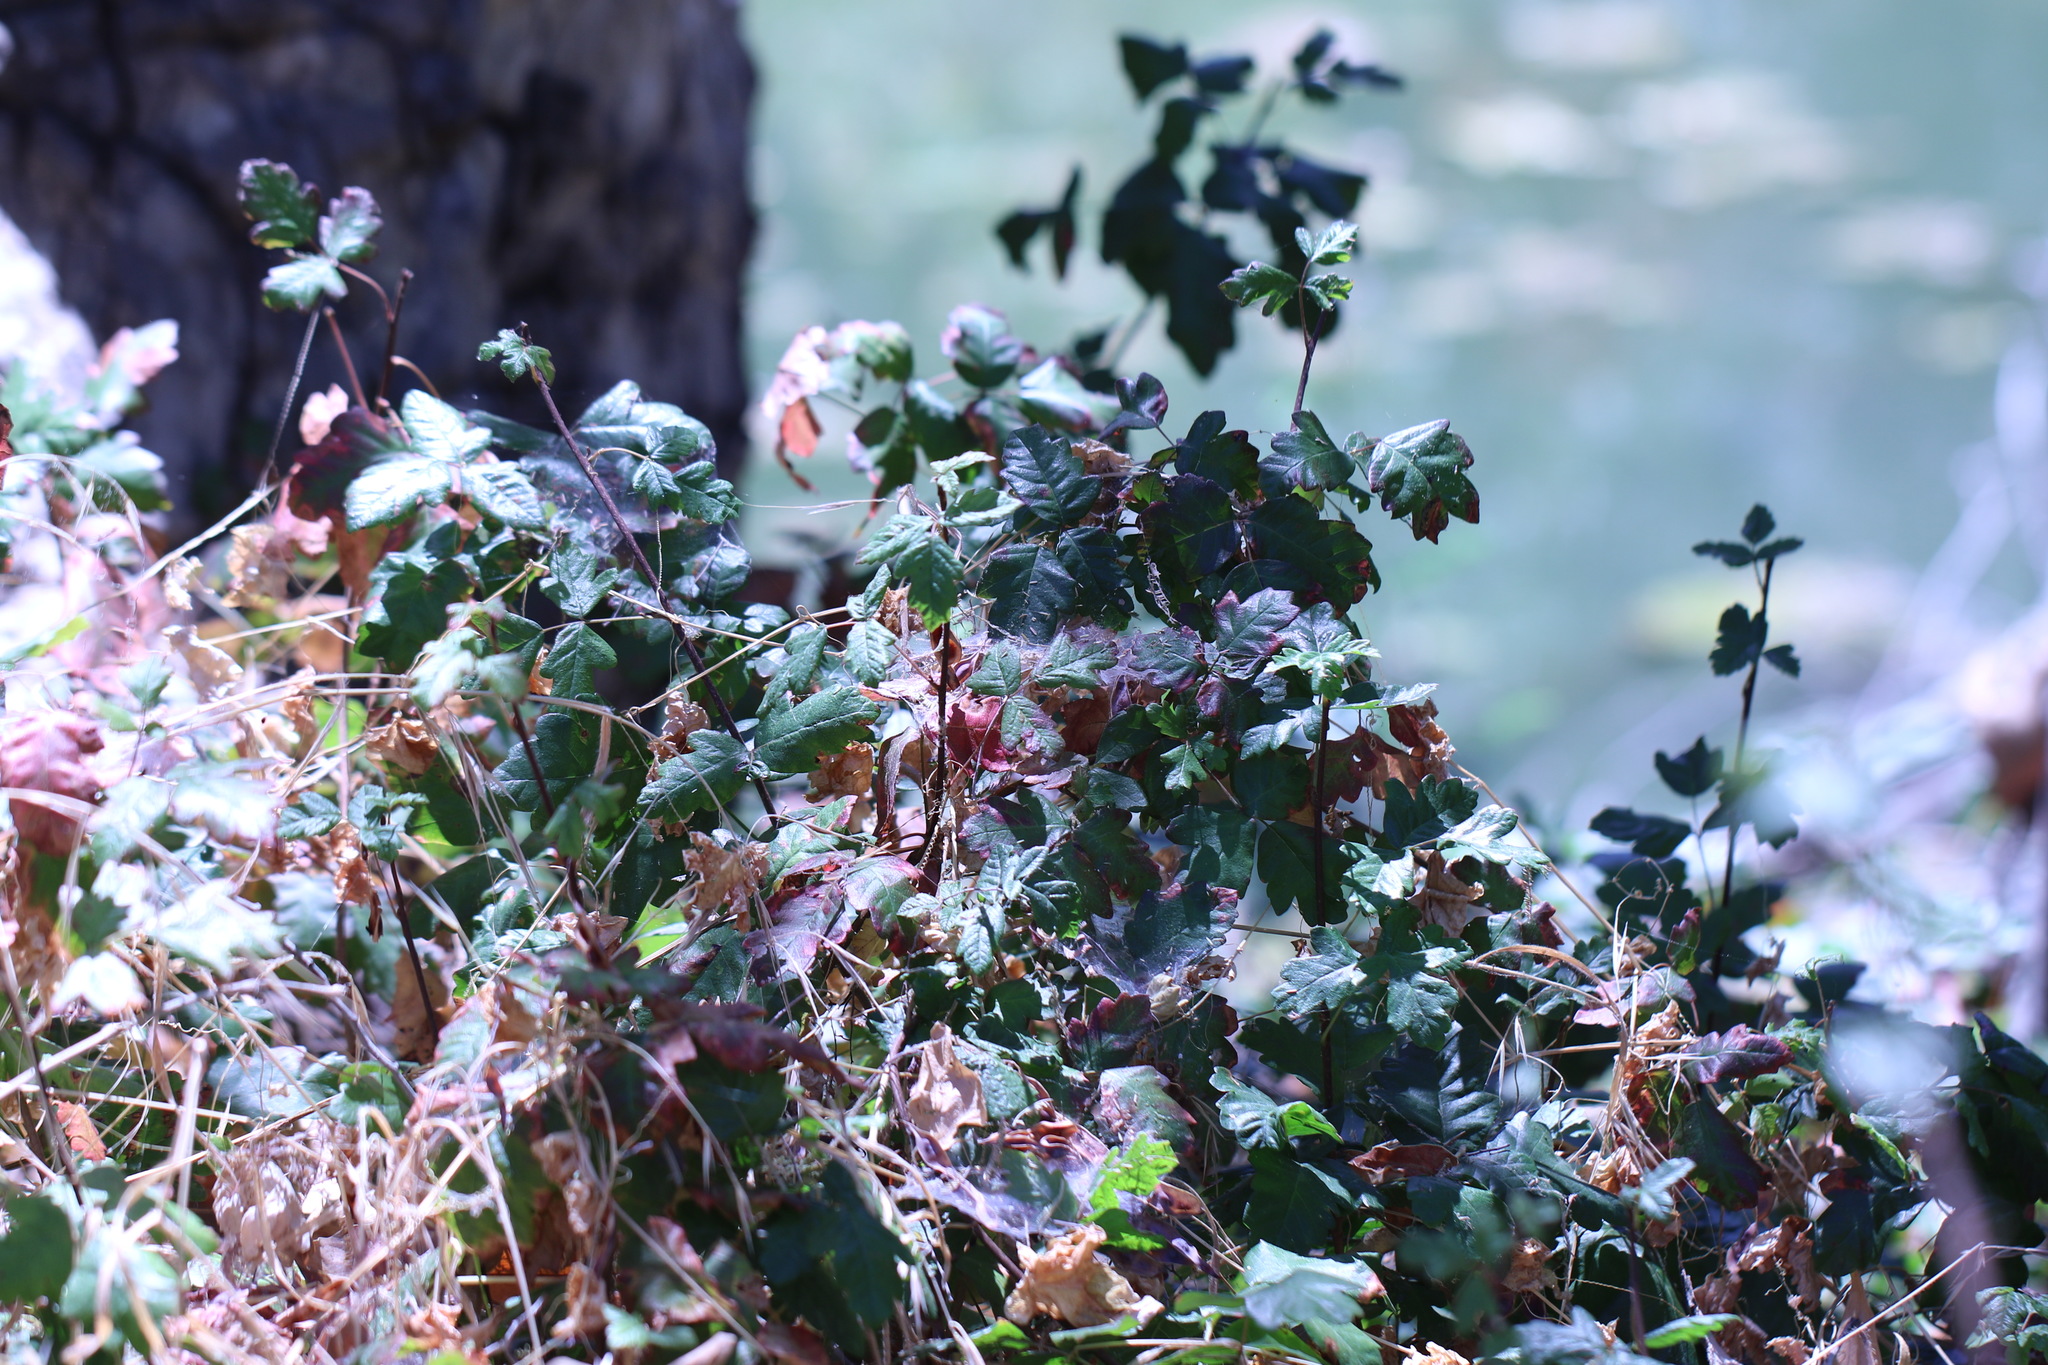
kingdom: Plantae
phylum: Tracheophyta
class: Magnoliopsida
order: Sapindales
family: Anacardiaceae
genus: Toxicodendron
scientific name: Toxicodendron diversilobum
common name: Pacific poison-oak
